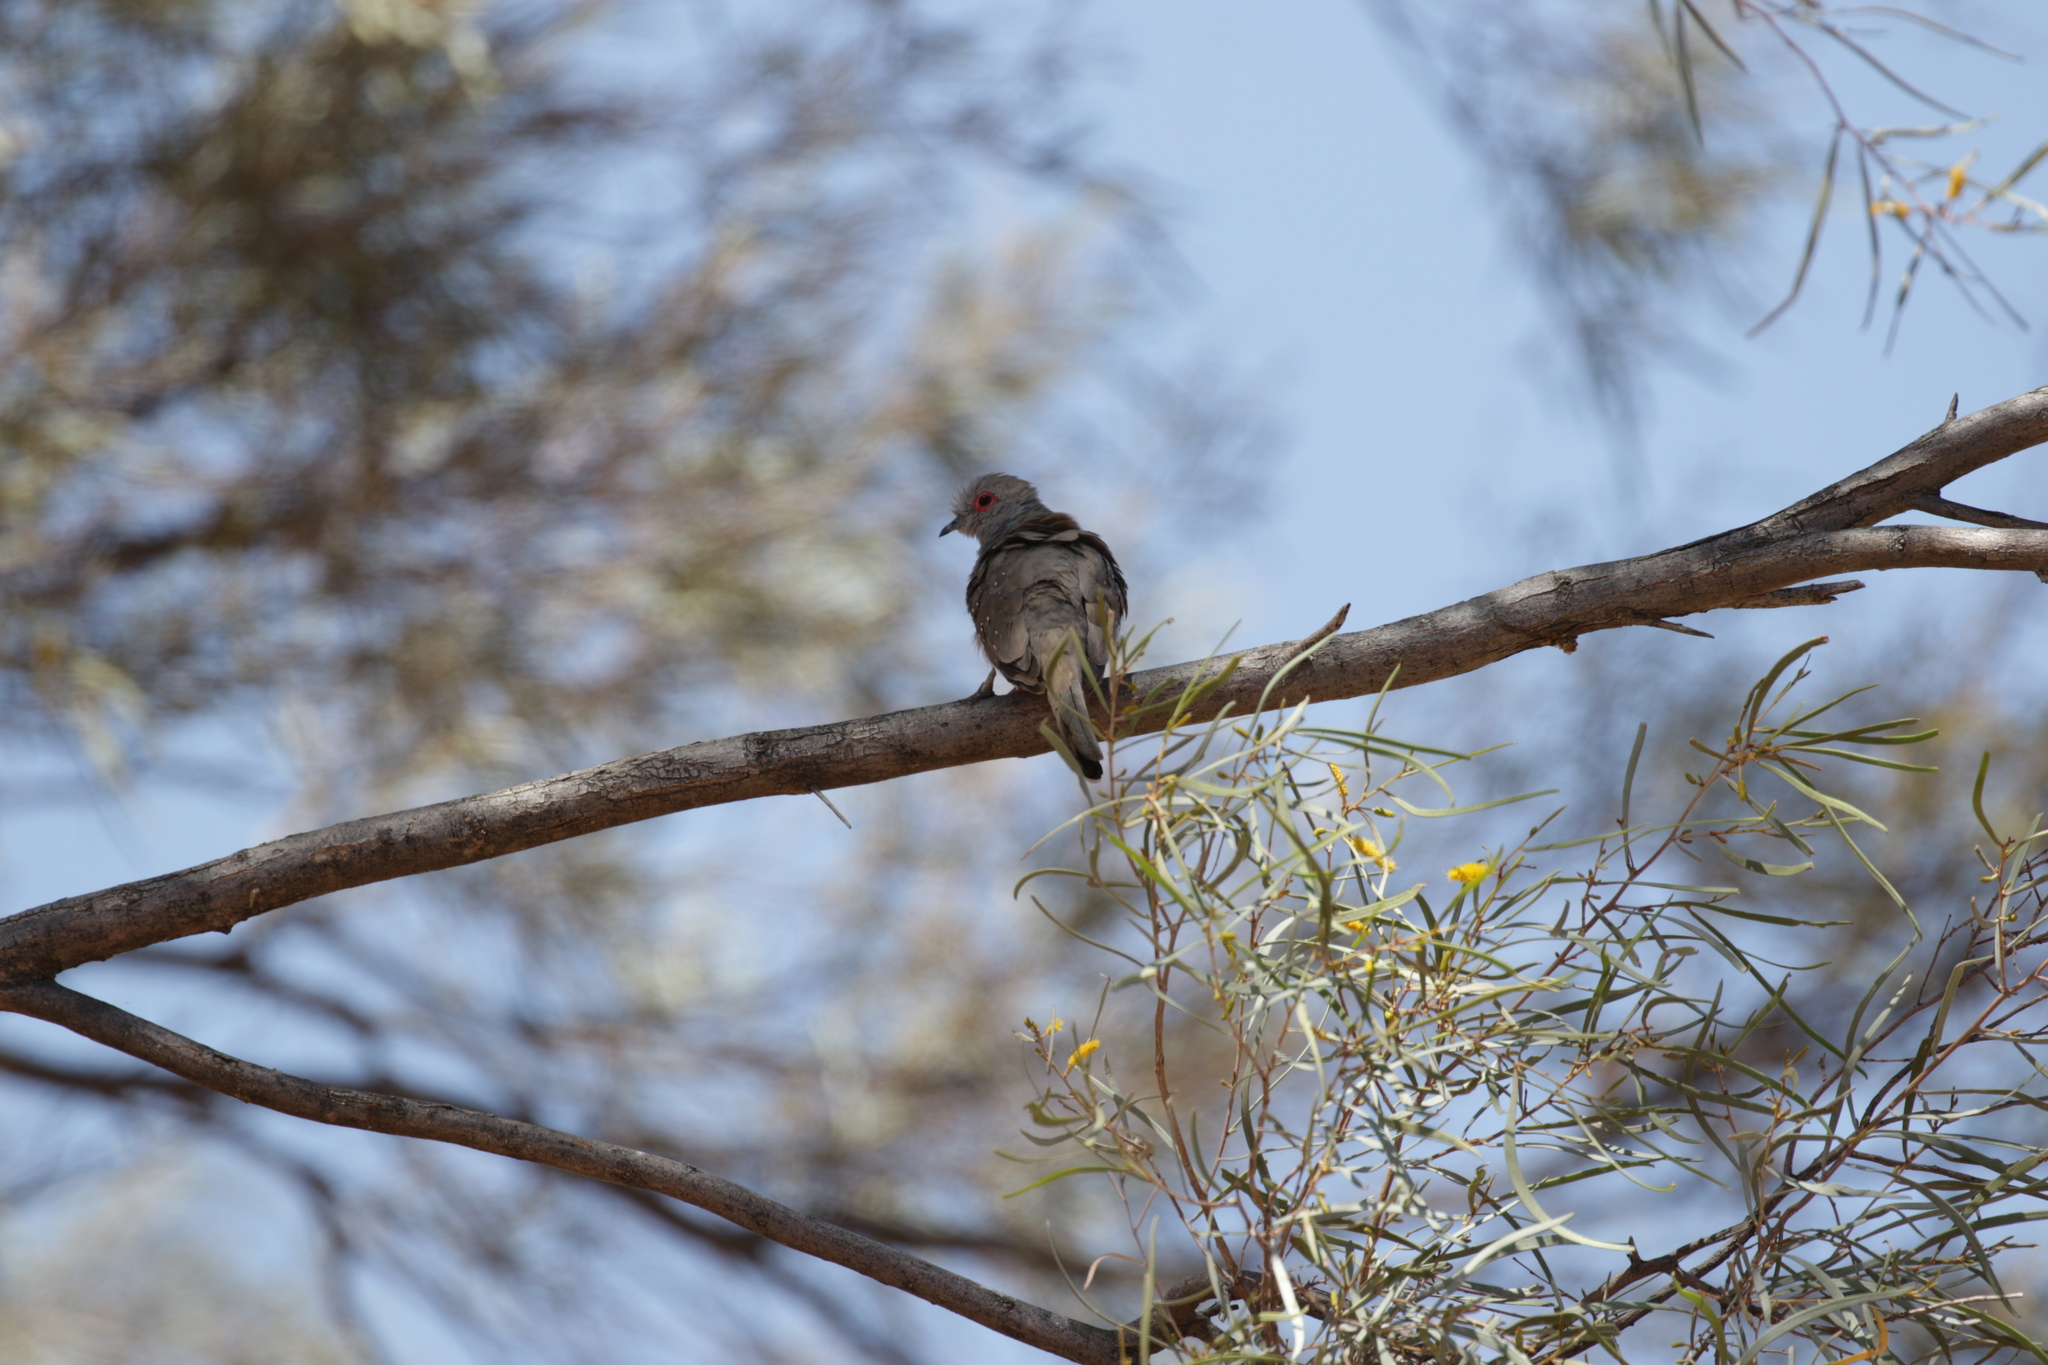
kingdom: Animalia
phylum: Chordata
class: Aves
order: Columbiformes
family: Columbidae
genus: Geopelia
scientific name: Geopelia cuneata
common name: Diamond dove
